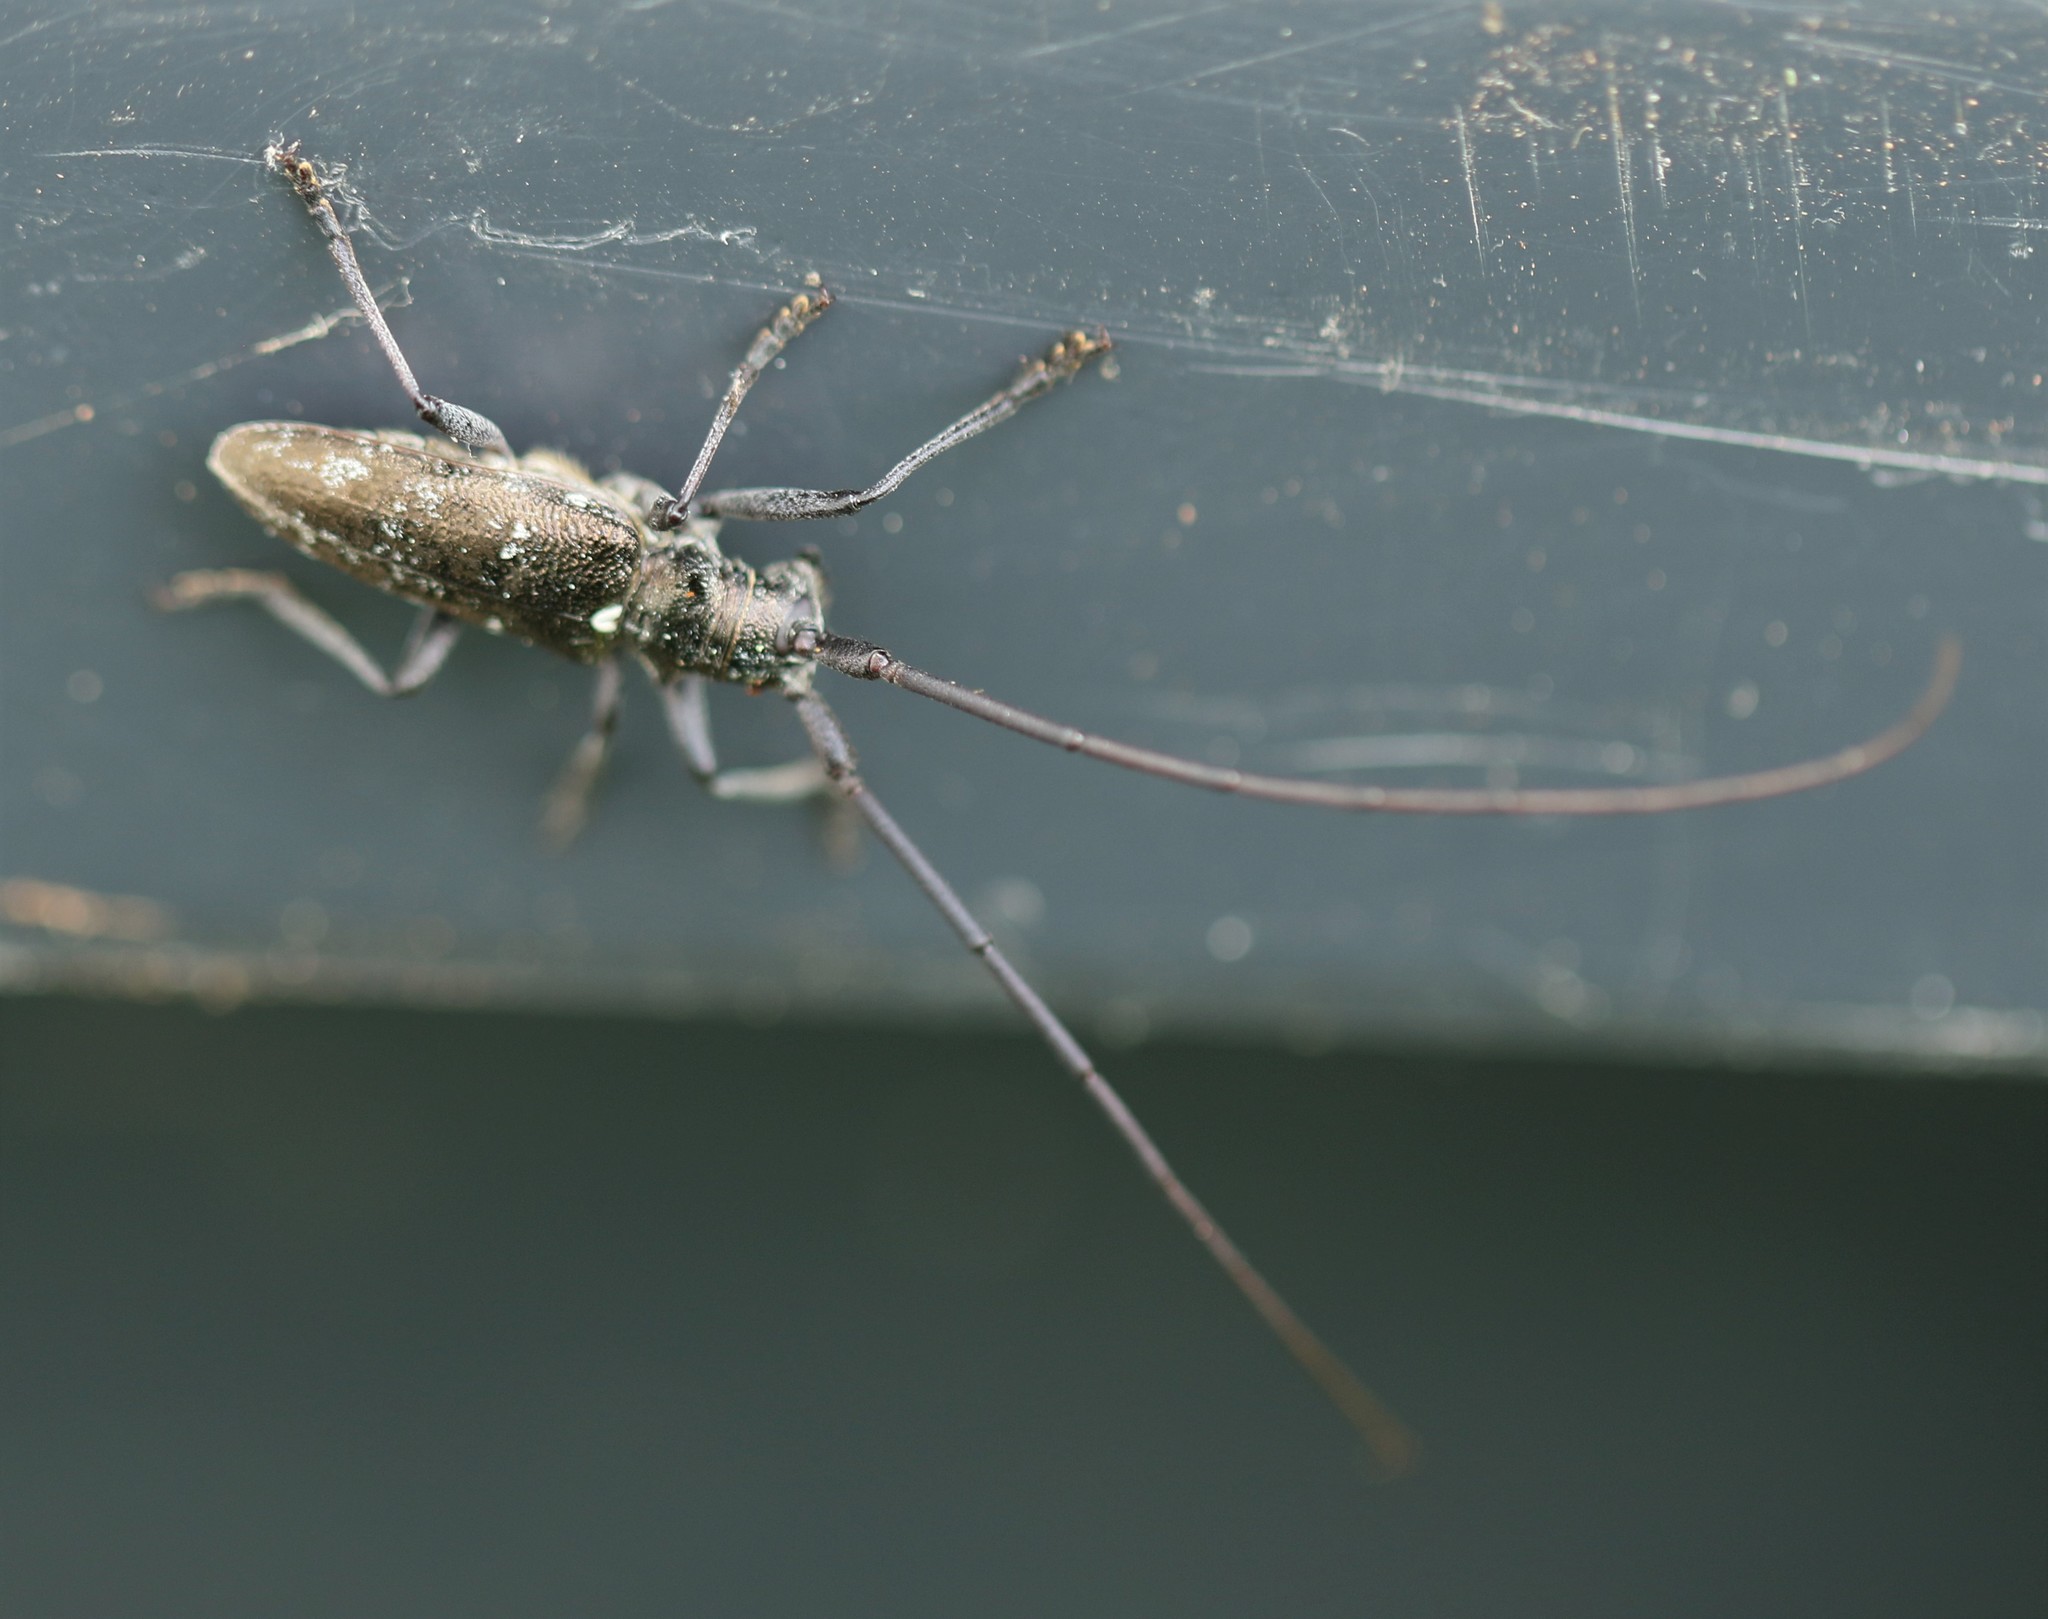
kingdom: Animalia
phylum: Arthropoda
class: Insecta
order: Coleoptera
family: Cerambycidae
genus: Monochamus
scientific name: Monochamus scutellatus
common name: White-spotted sawyer beetle
